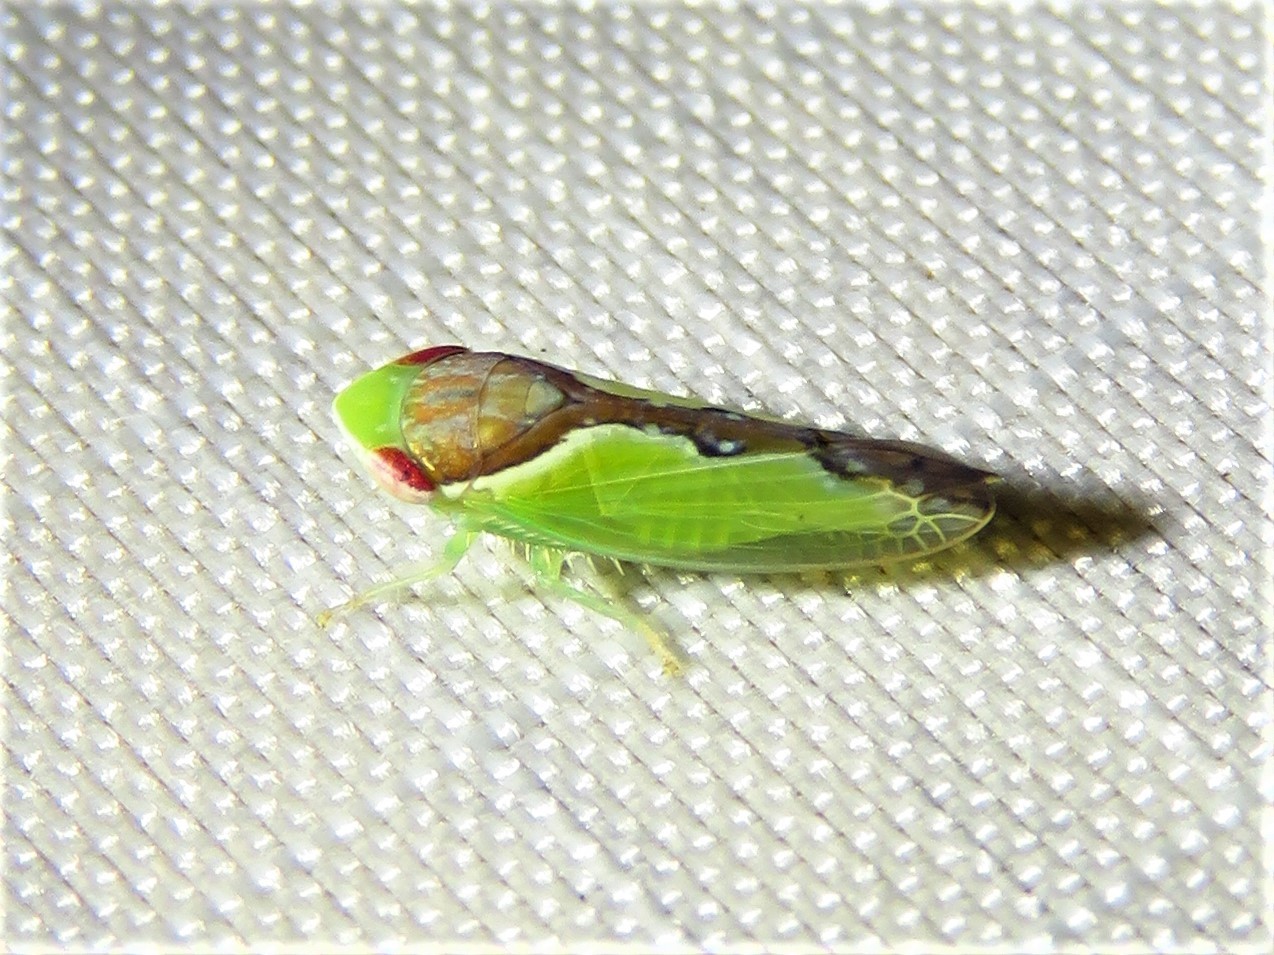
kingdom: Animalia
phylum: Arthropoda
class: Insecta
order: Hemiptera
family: Cicadellidae
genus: Omansobara ing
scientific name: Omansobara ing Omansobara palliolata
